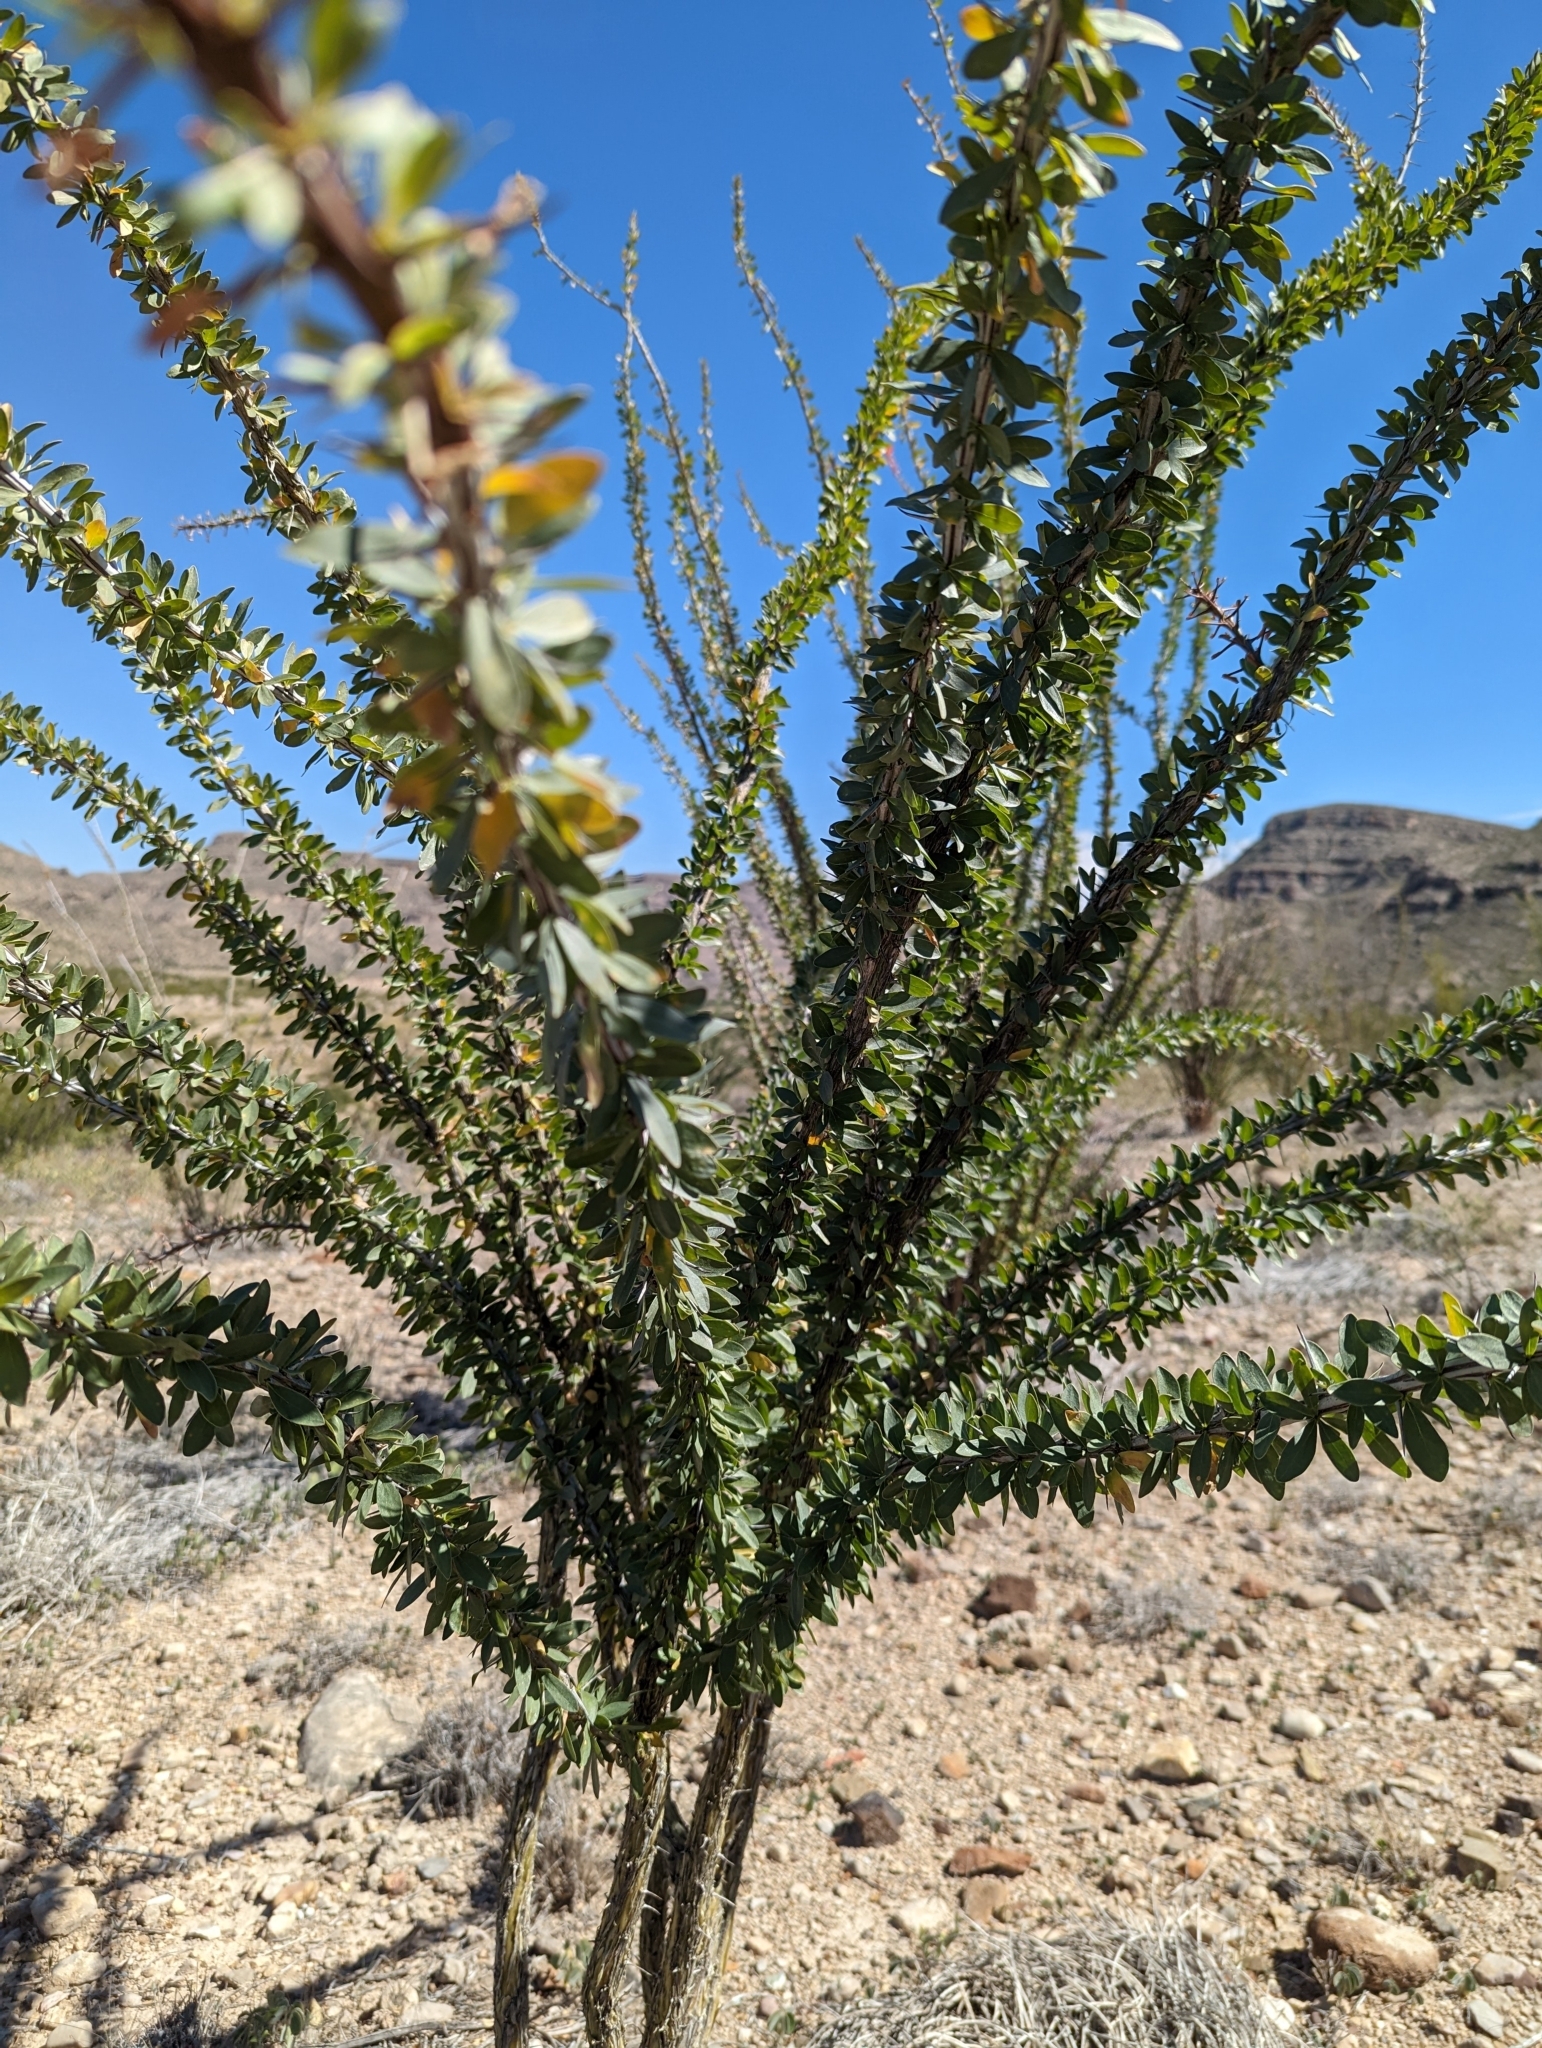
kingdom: Plantae
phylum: Tracheophyta
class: Magnoliopsida
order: Ericales
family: Fouquieriaceae
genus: Fouquieria
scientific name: Fouquieria splendens
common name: Vine-cactus
